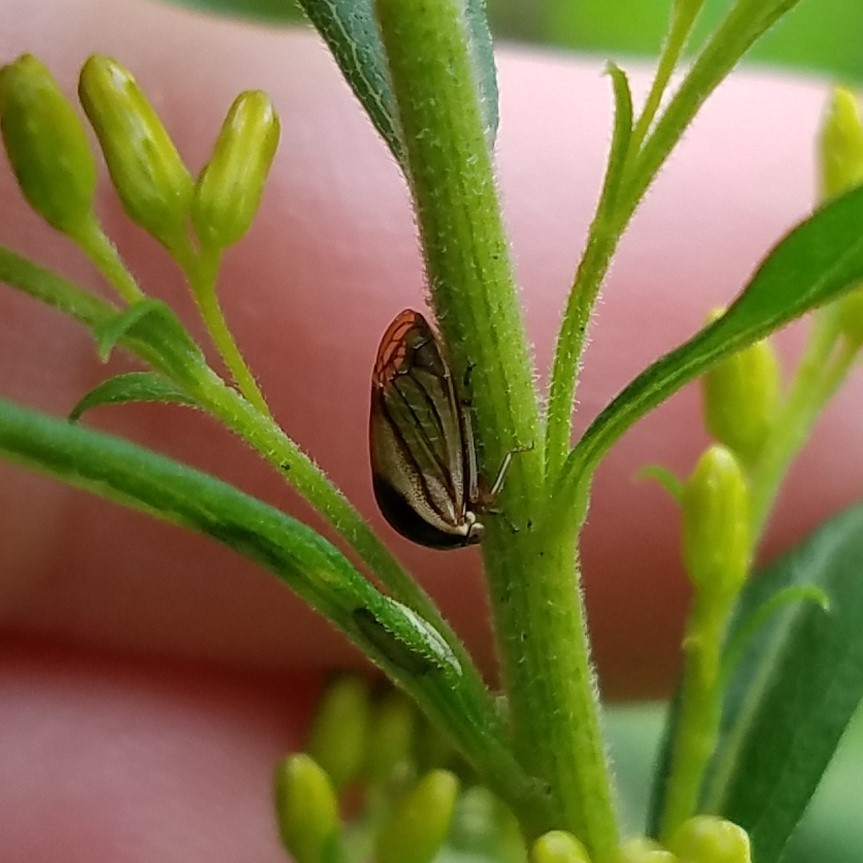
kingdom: Animalia
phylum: Arthropoda
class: Insecta
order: Hemiptera
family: Membracidae
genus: Acutalis
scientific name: Acutalis tartarea
